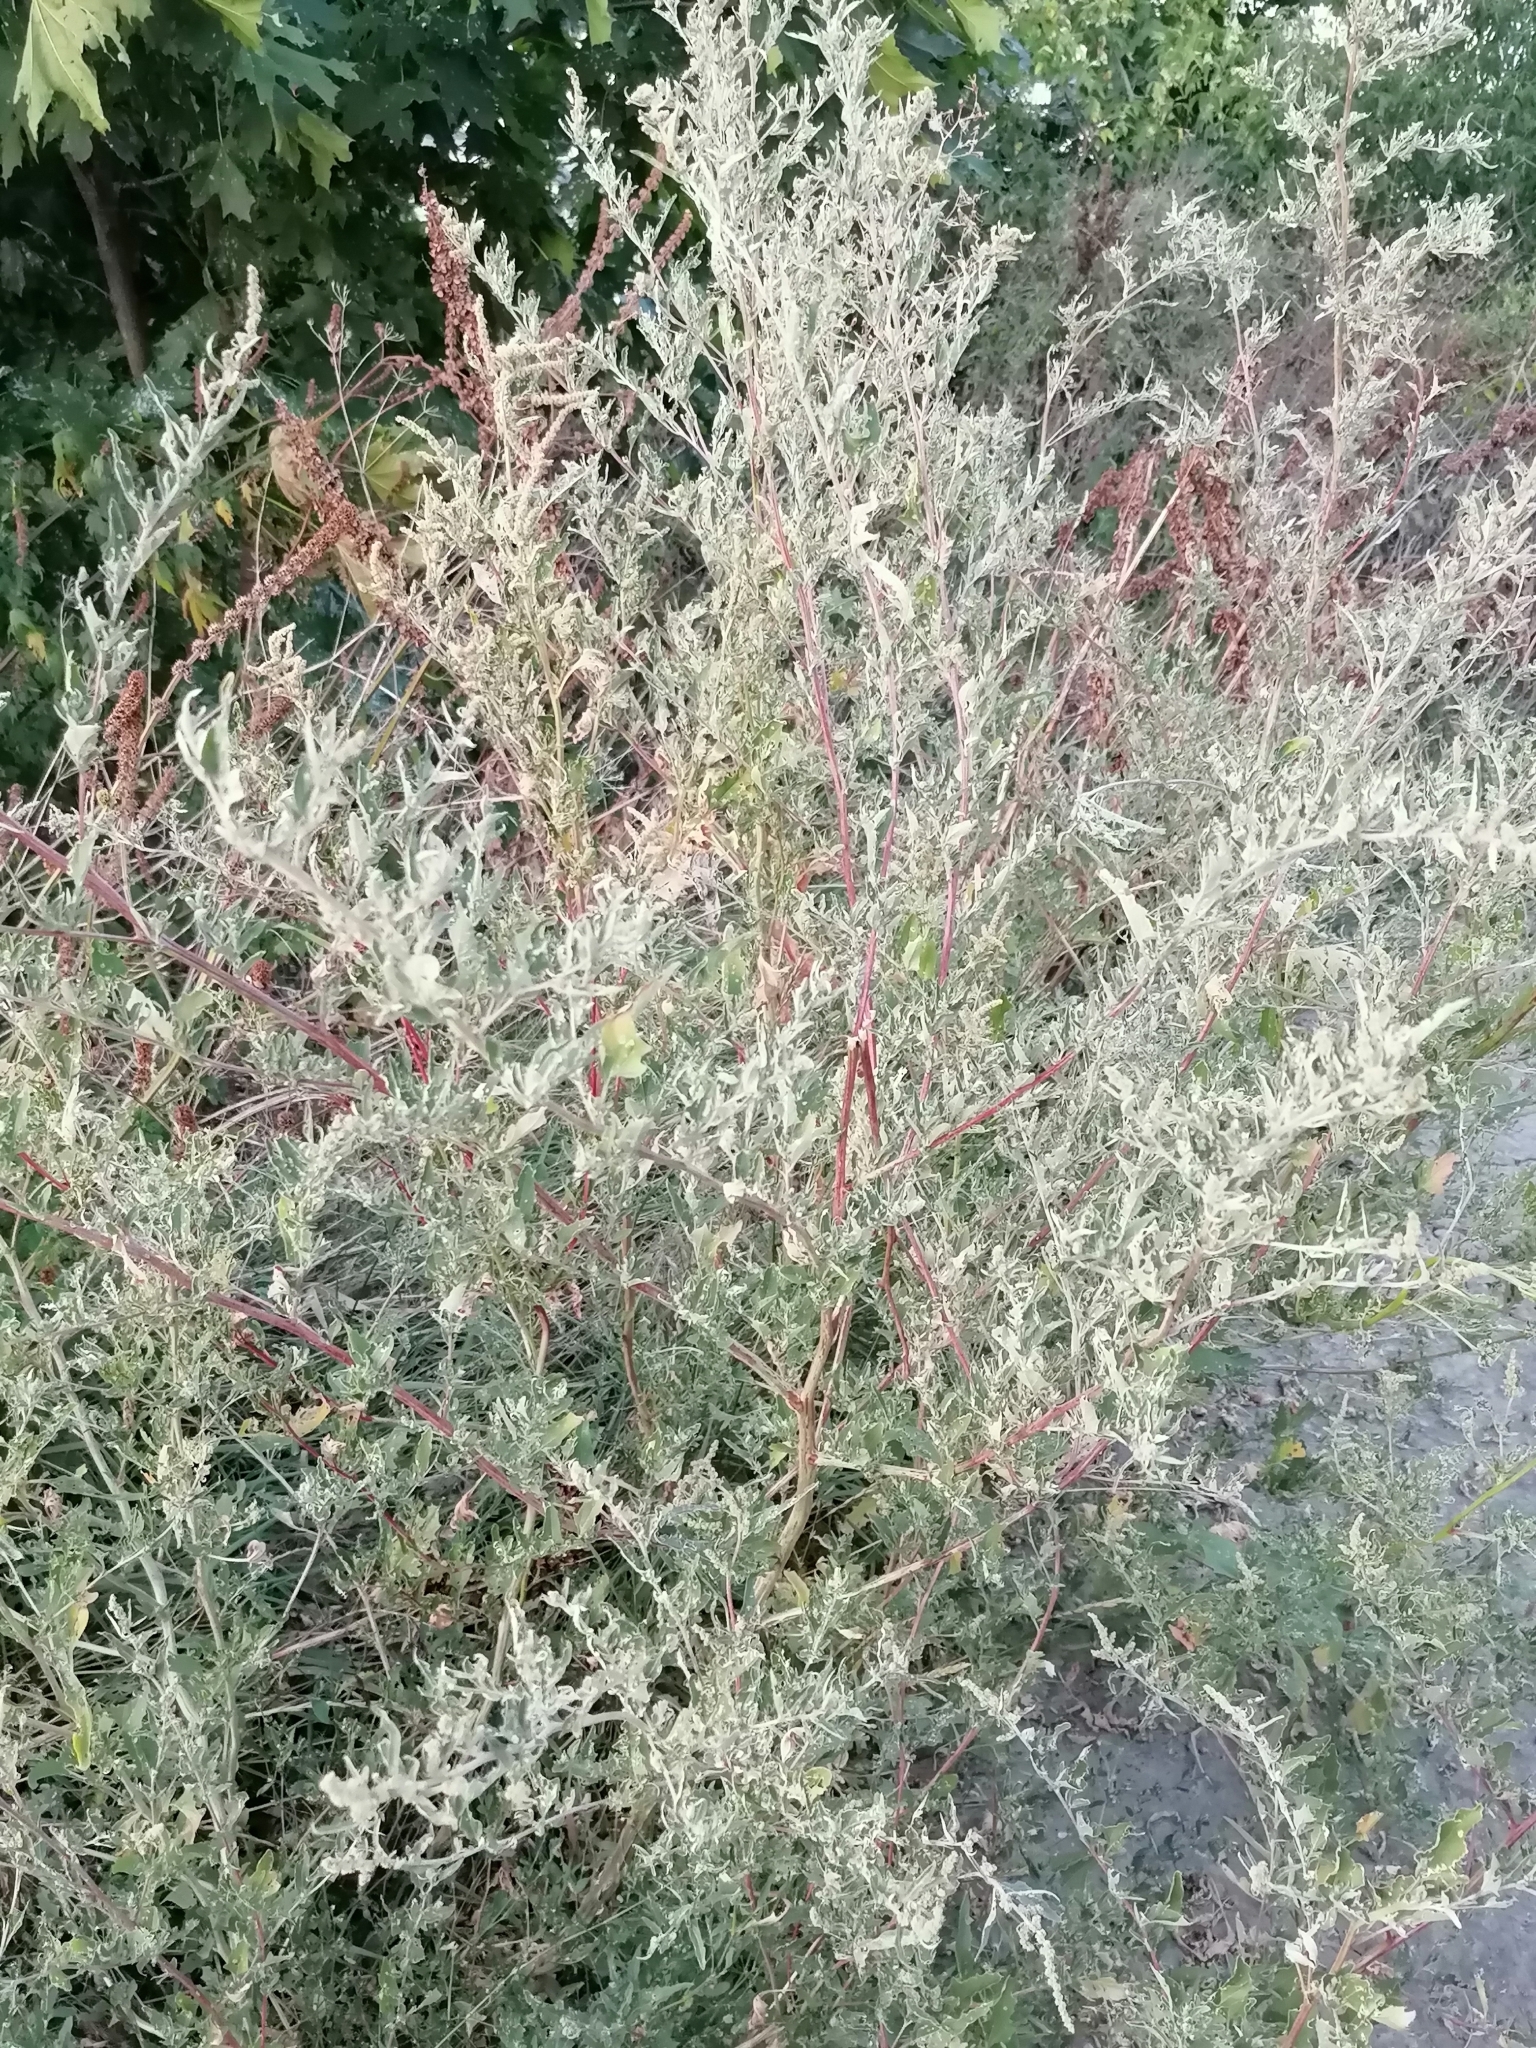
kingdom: Plantae
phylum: Tracheophyta
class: Magnoliopsida
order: Caryophyllales
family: Amaranthaceae
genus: Atriplex
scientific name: Atriplex tatarica
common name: Tatarian orache
